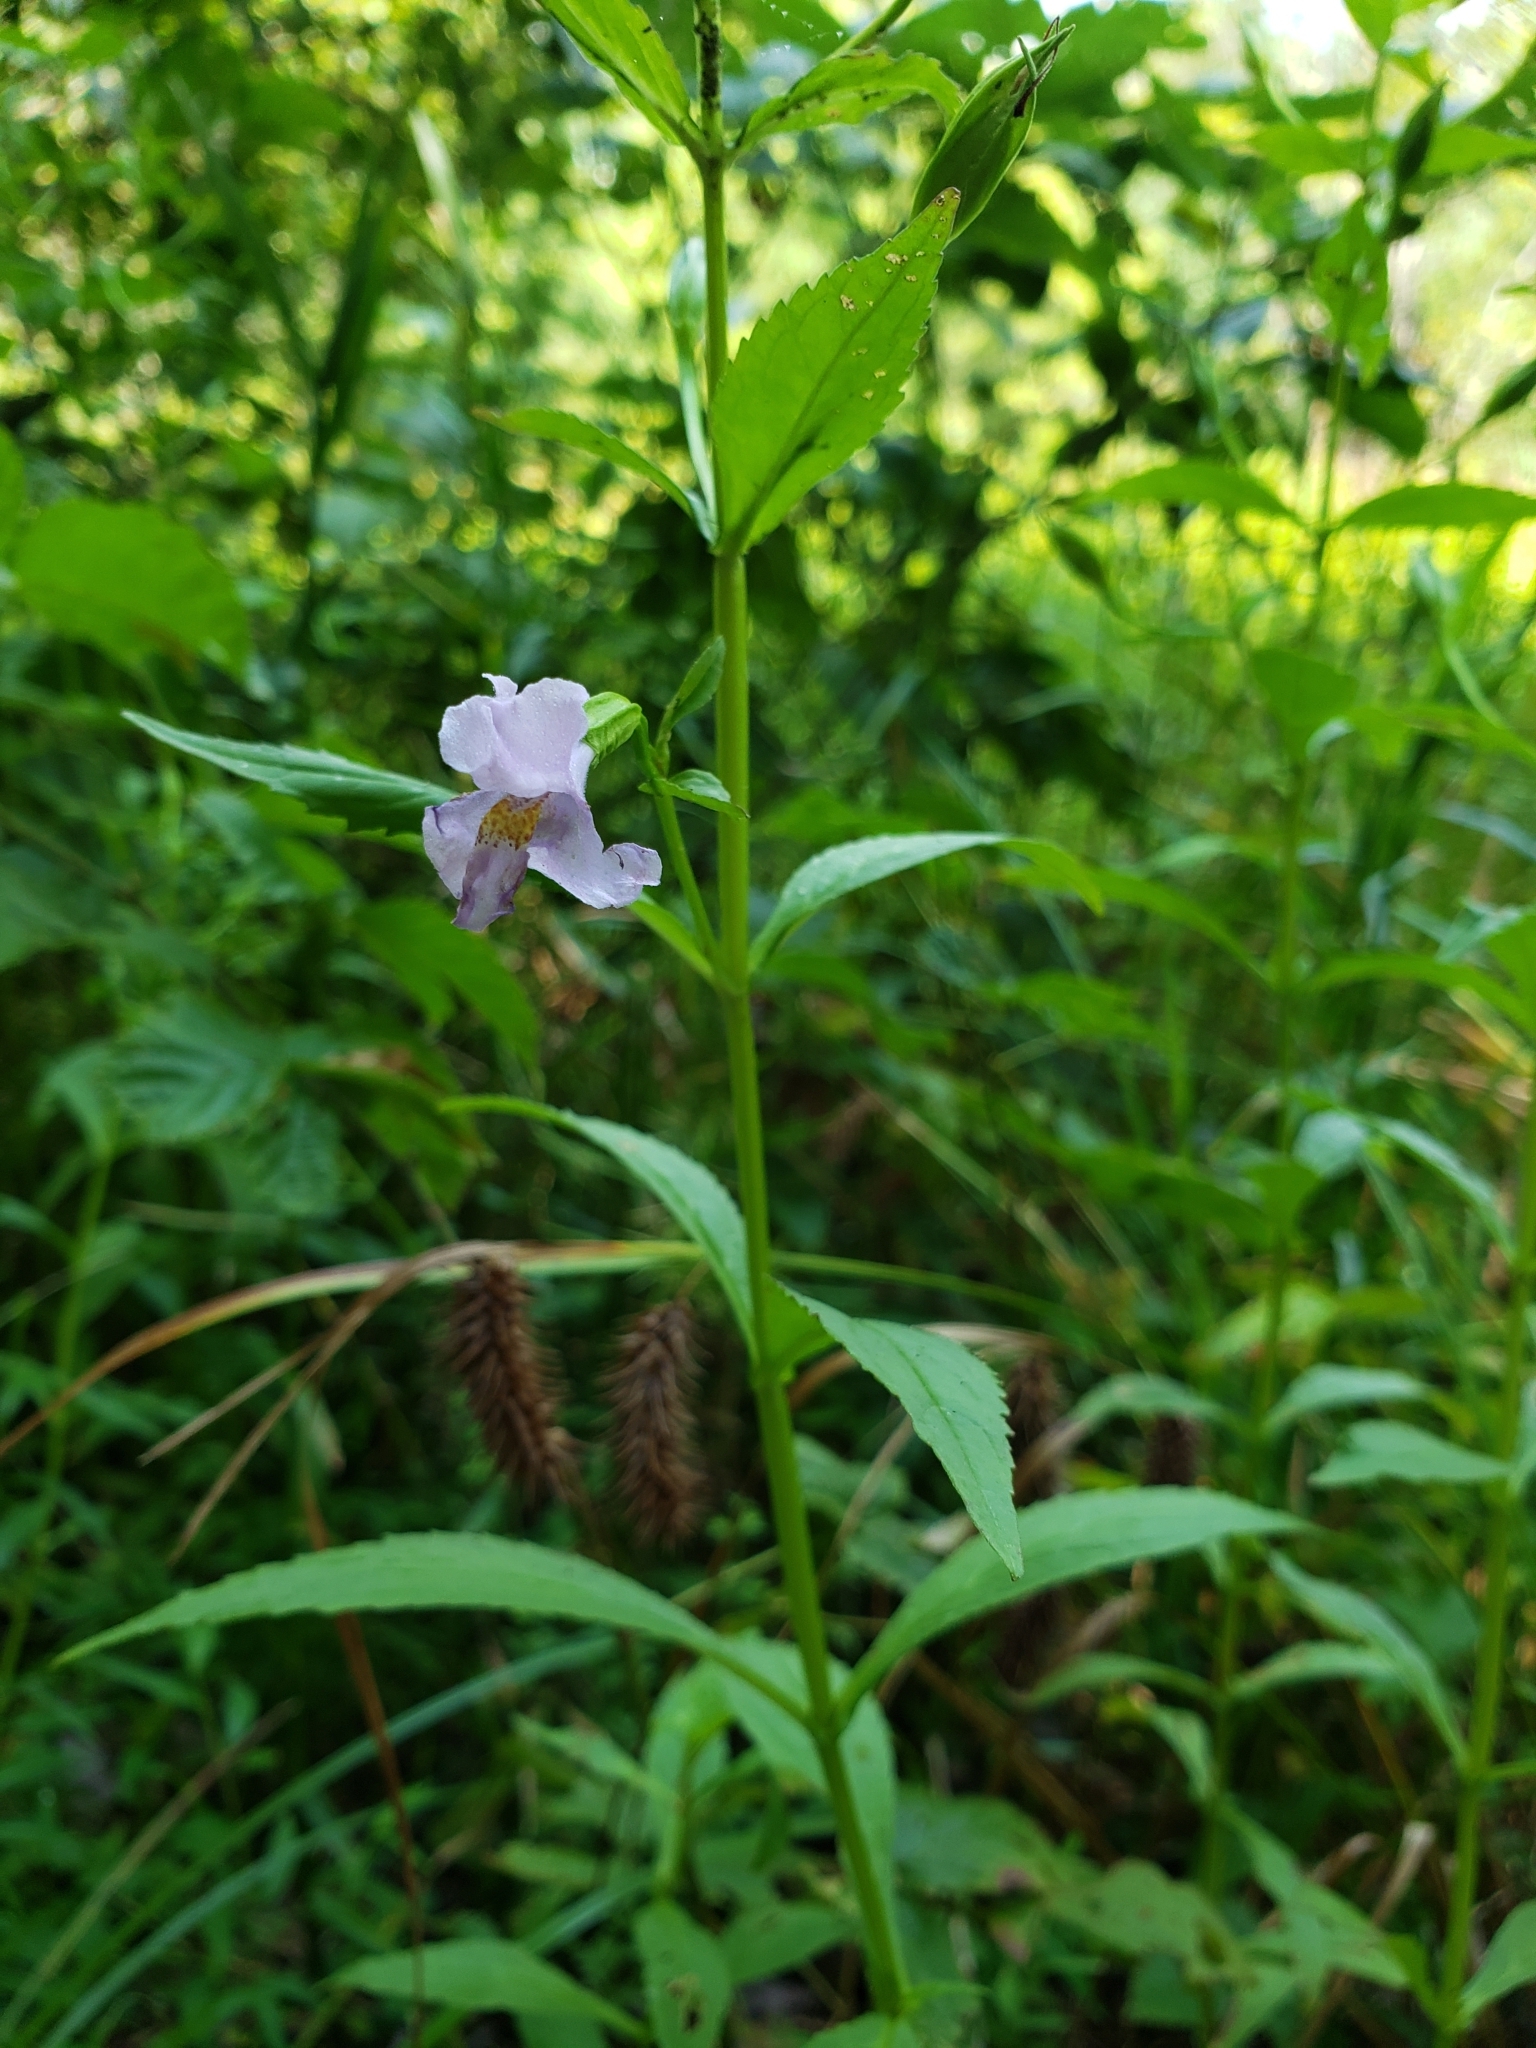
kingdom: Plantae
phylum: Tracheophyta
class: Magnoliopsida
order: Lamiales
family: Phrymaceae
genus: Mimulus
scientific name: Mimulus ringens
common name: Allegheny monkeyflower
